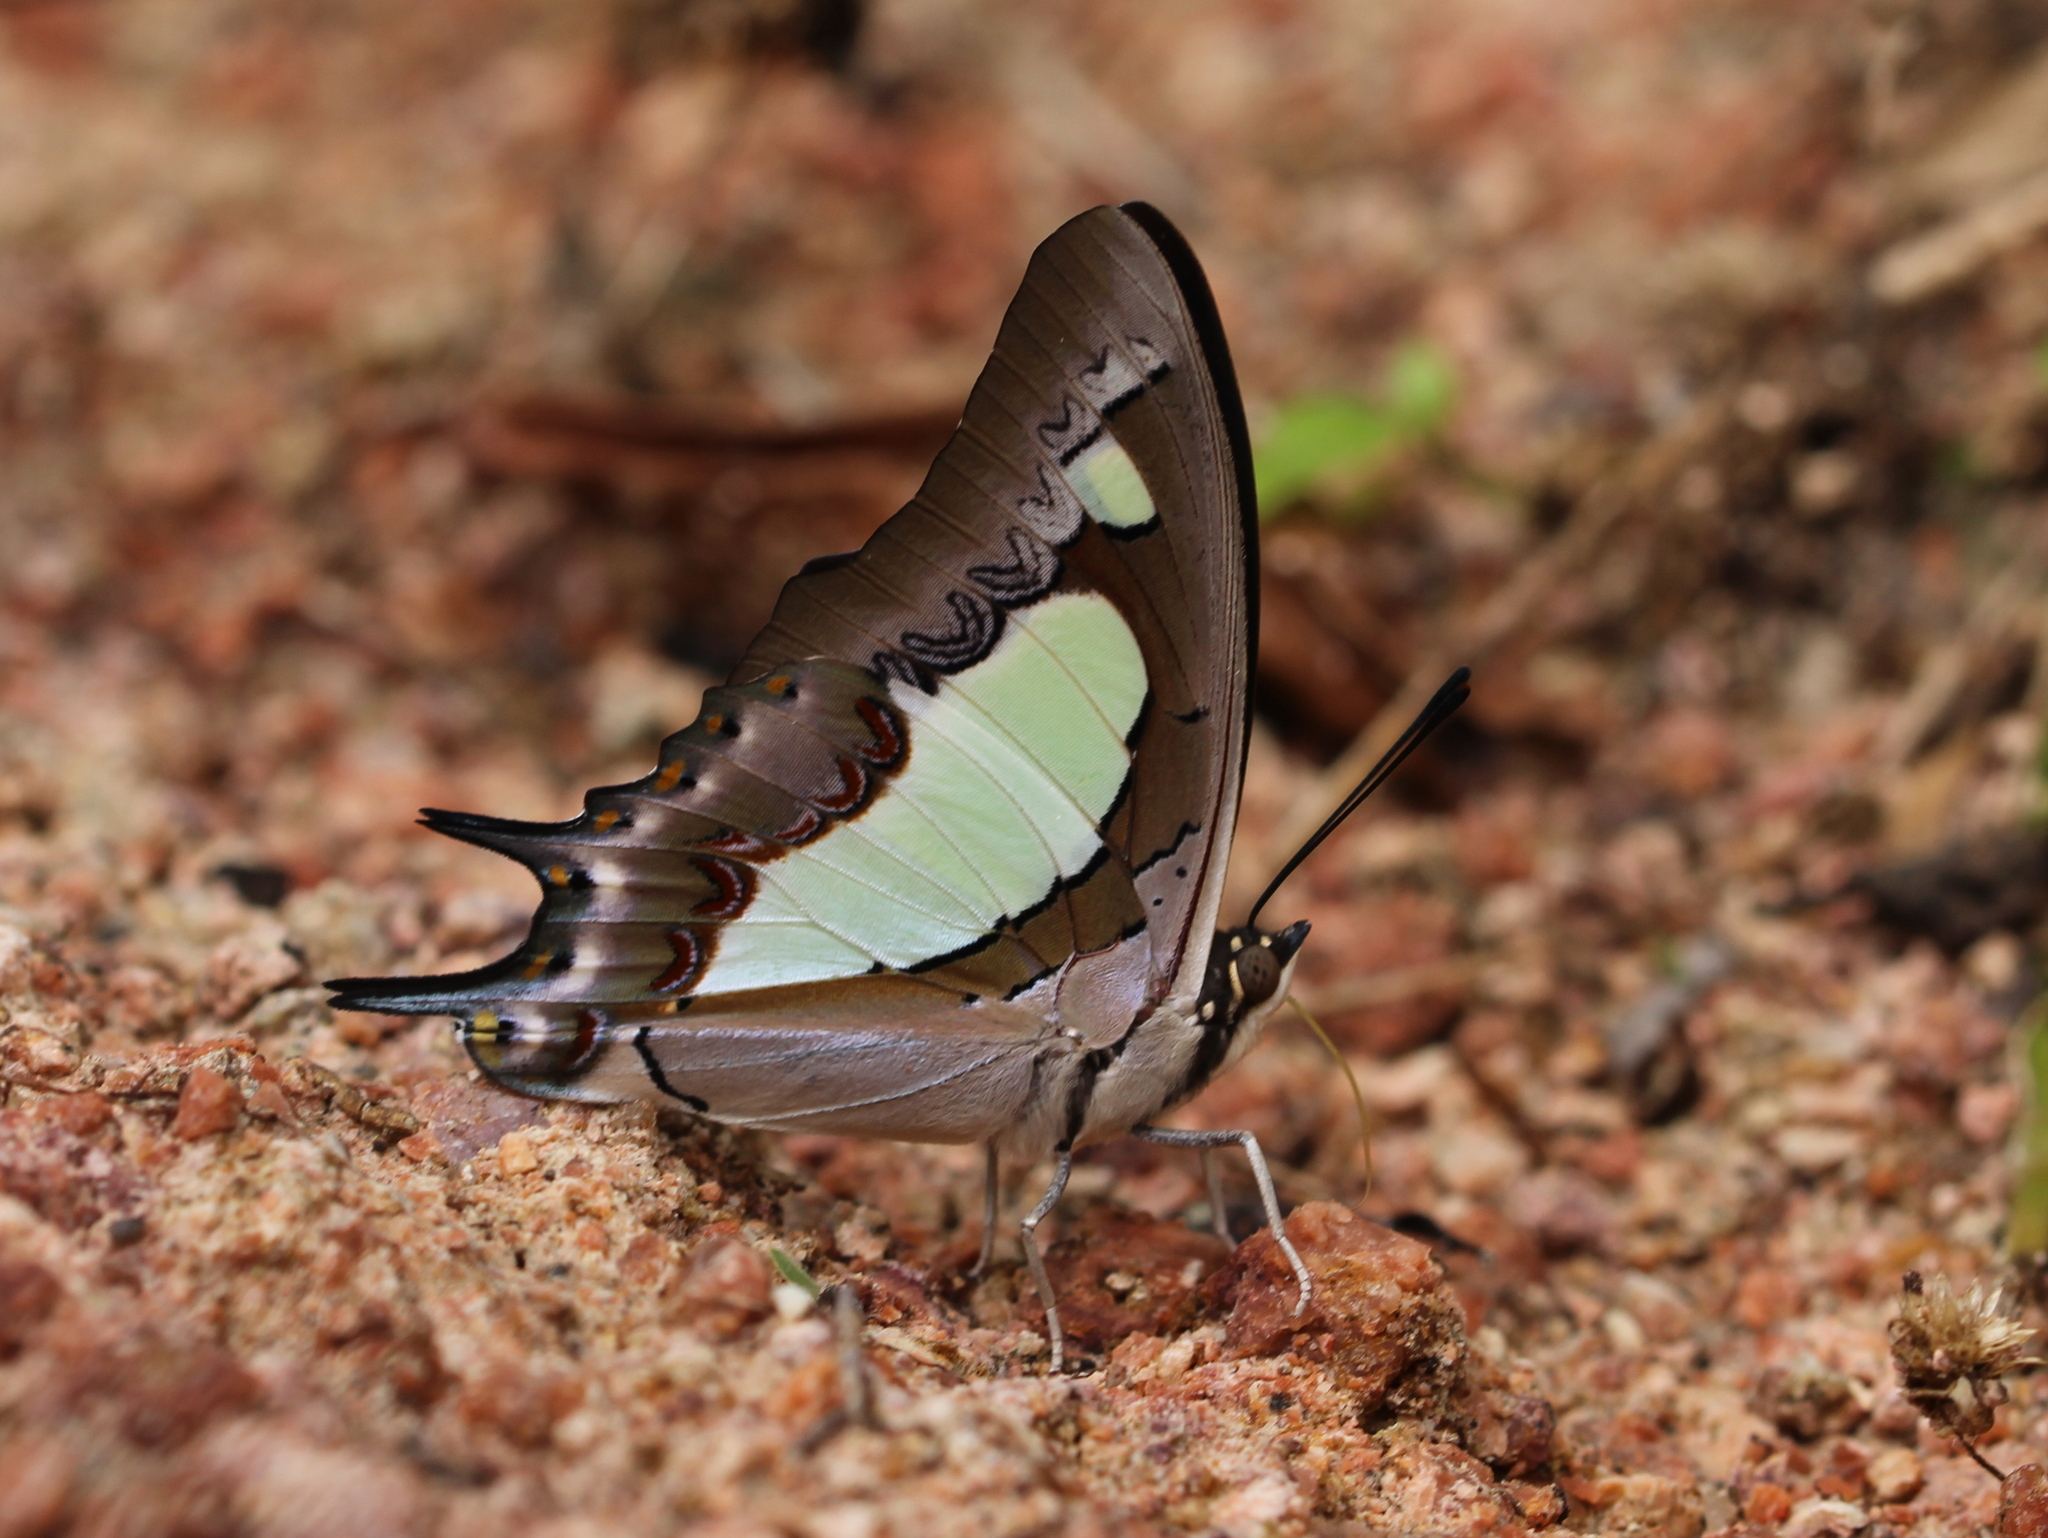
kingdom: Animalia
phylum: Arthropoda
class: Insecta
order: Lepidoptera
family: Nymphalidae
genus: Polyura
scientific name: Polyura agrarius
